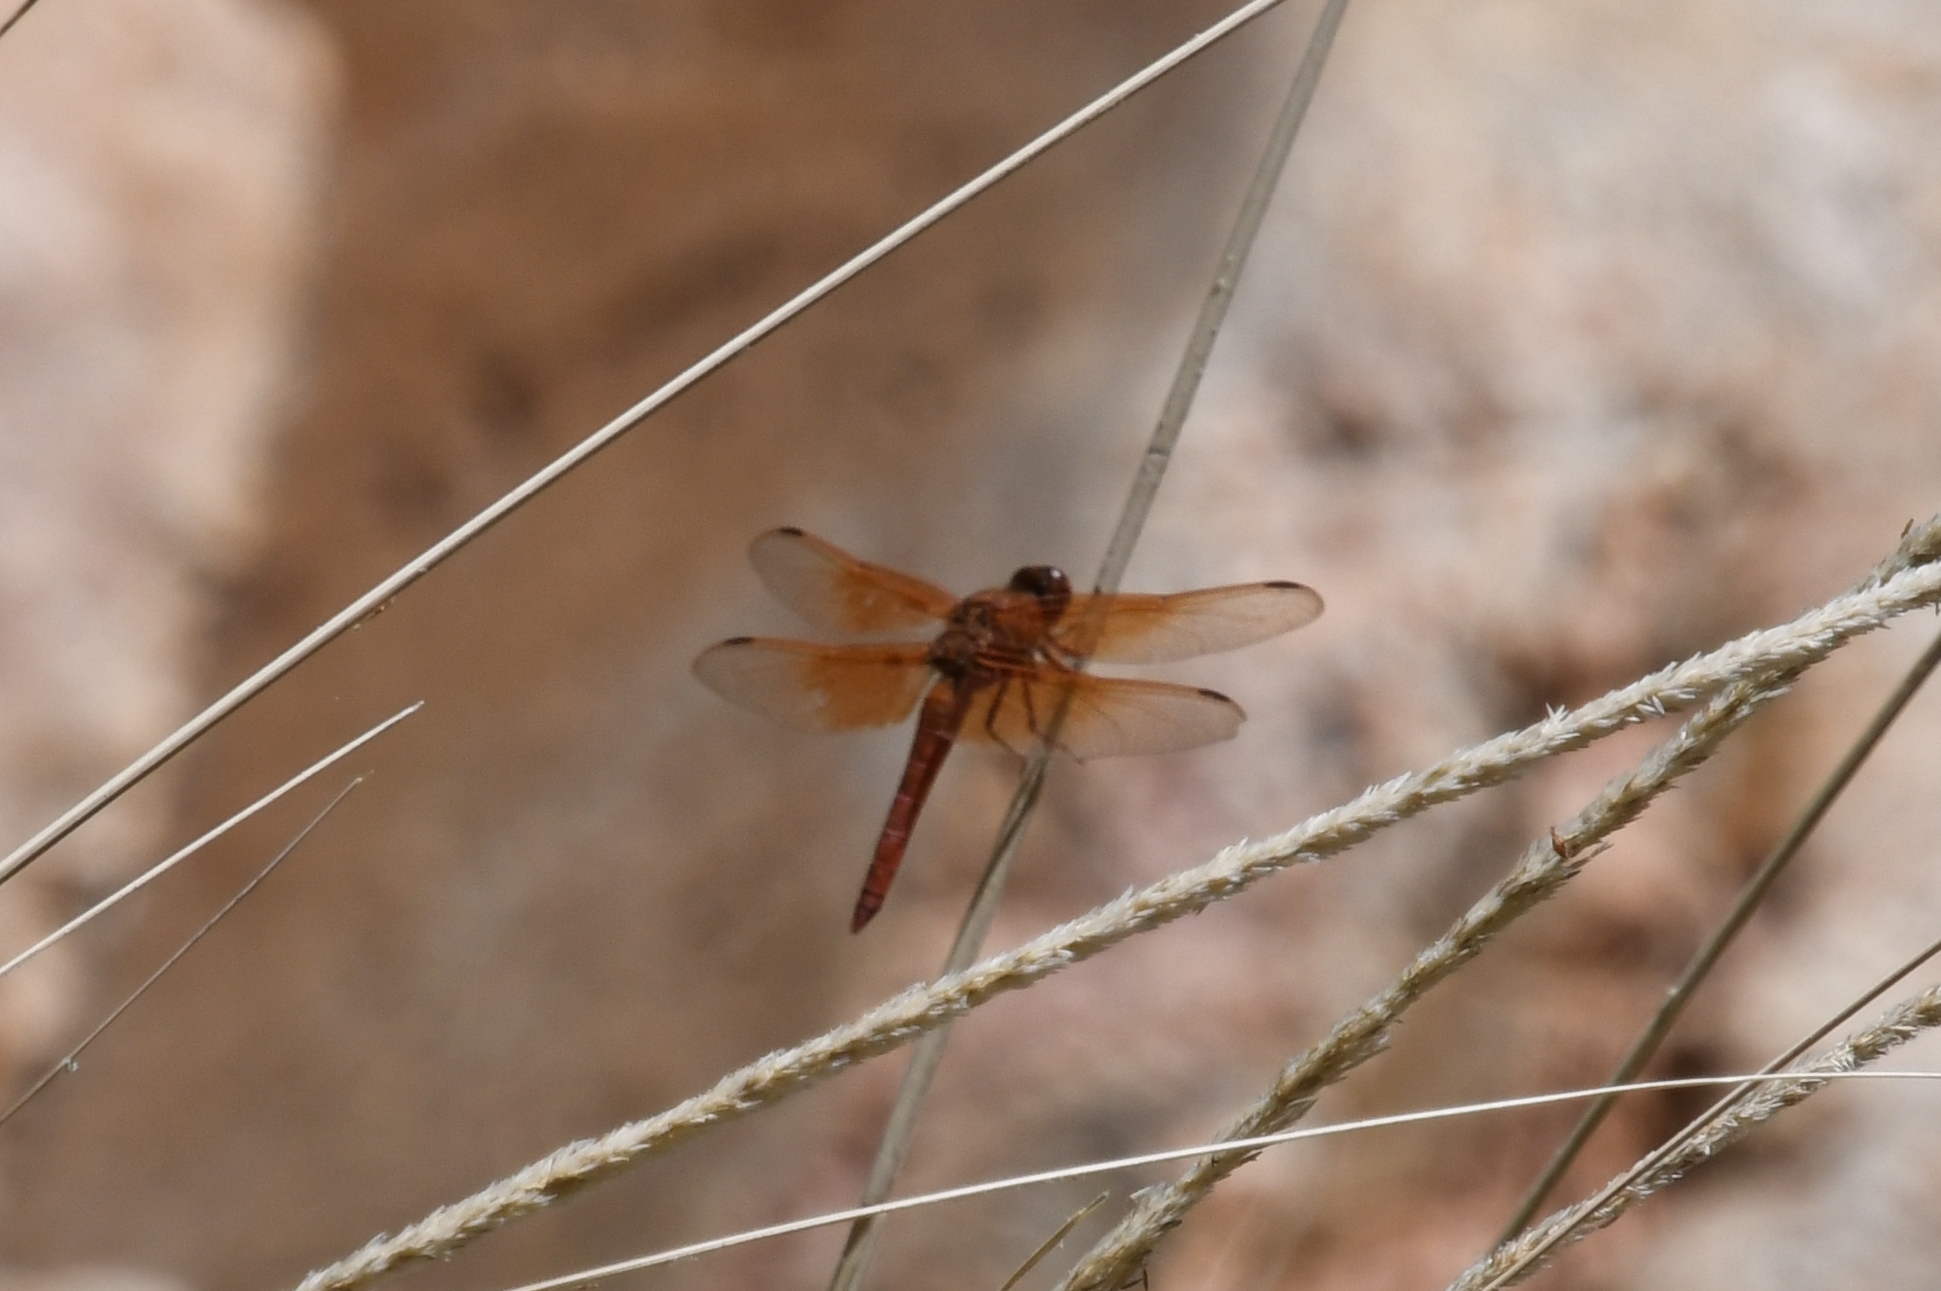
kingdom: Animalia
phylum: Arthropoda
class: Insecta
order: Odonata
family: Libellulidae
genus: Libellula
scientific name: Libellula saturata
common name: Flame skimmer
